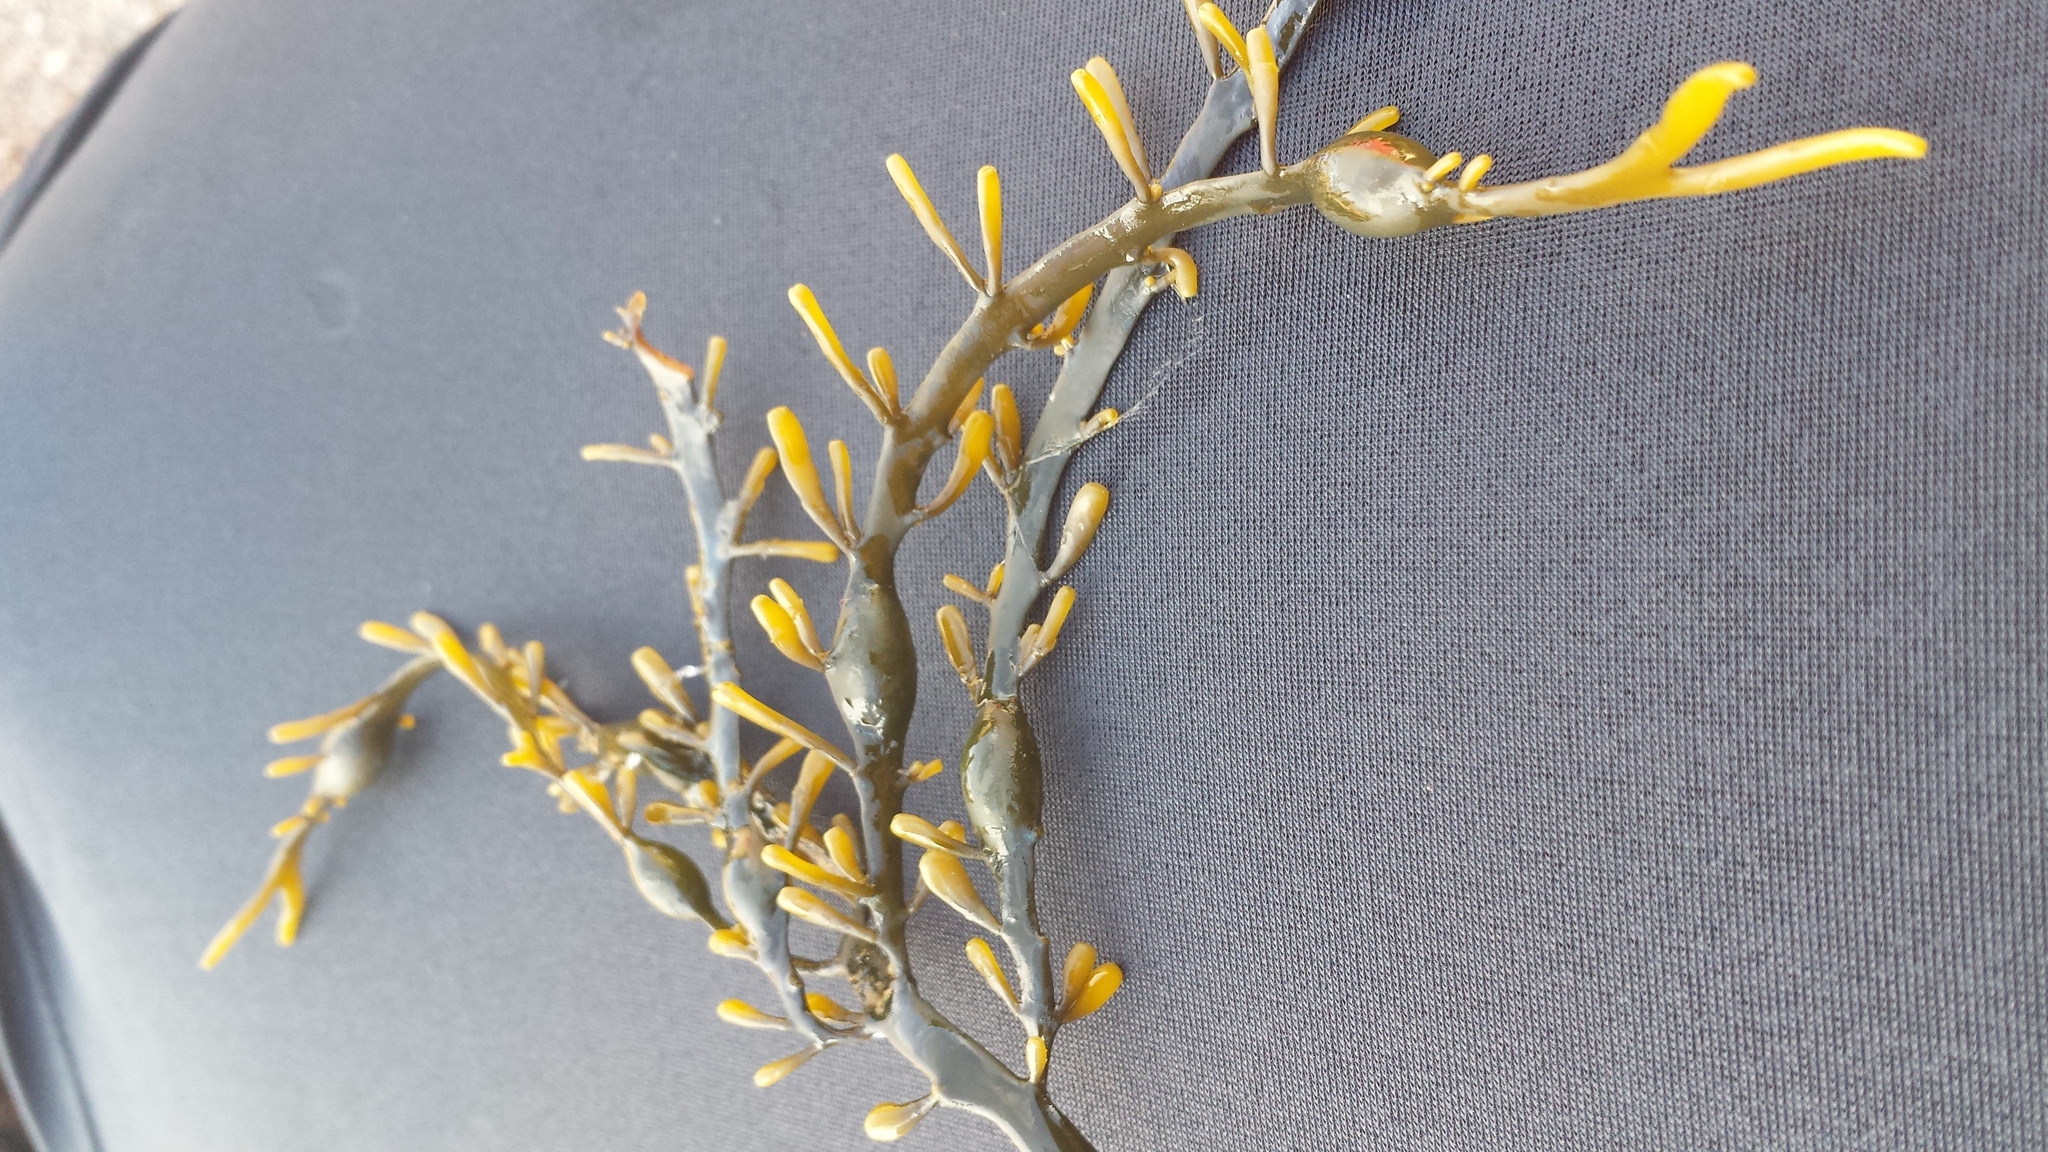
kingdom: Chromista
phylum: Ochrophyta
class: Phaeophyceae
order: Fucales
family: Fucaceae
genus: Ascophyllum
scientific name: Ascophyllum nodosum
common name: Knotted wrack
